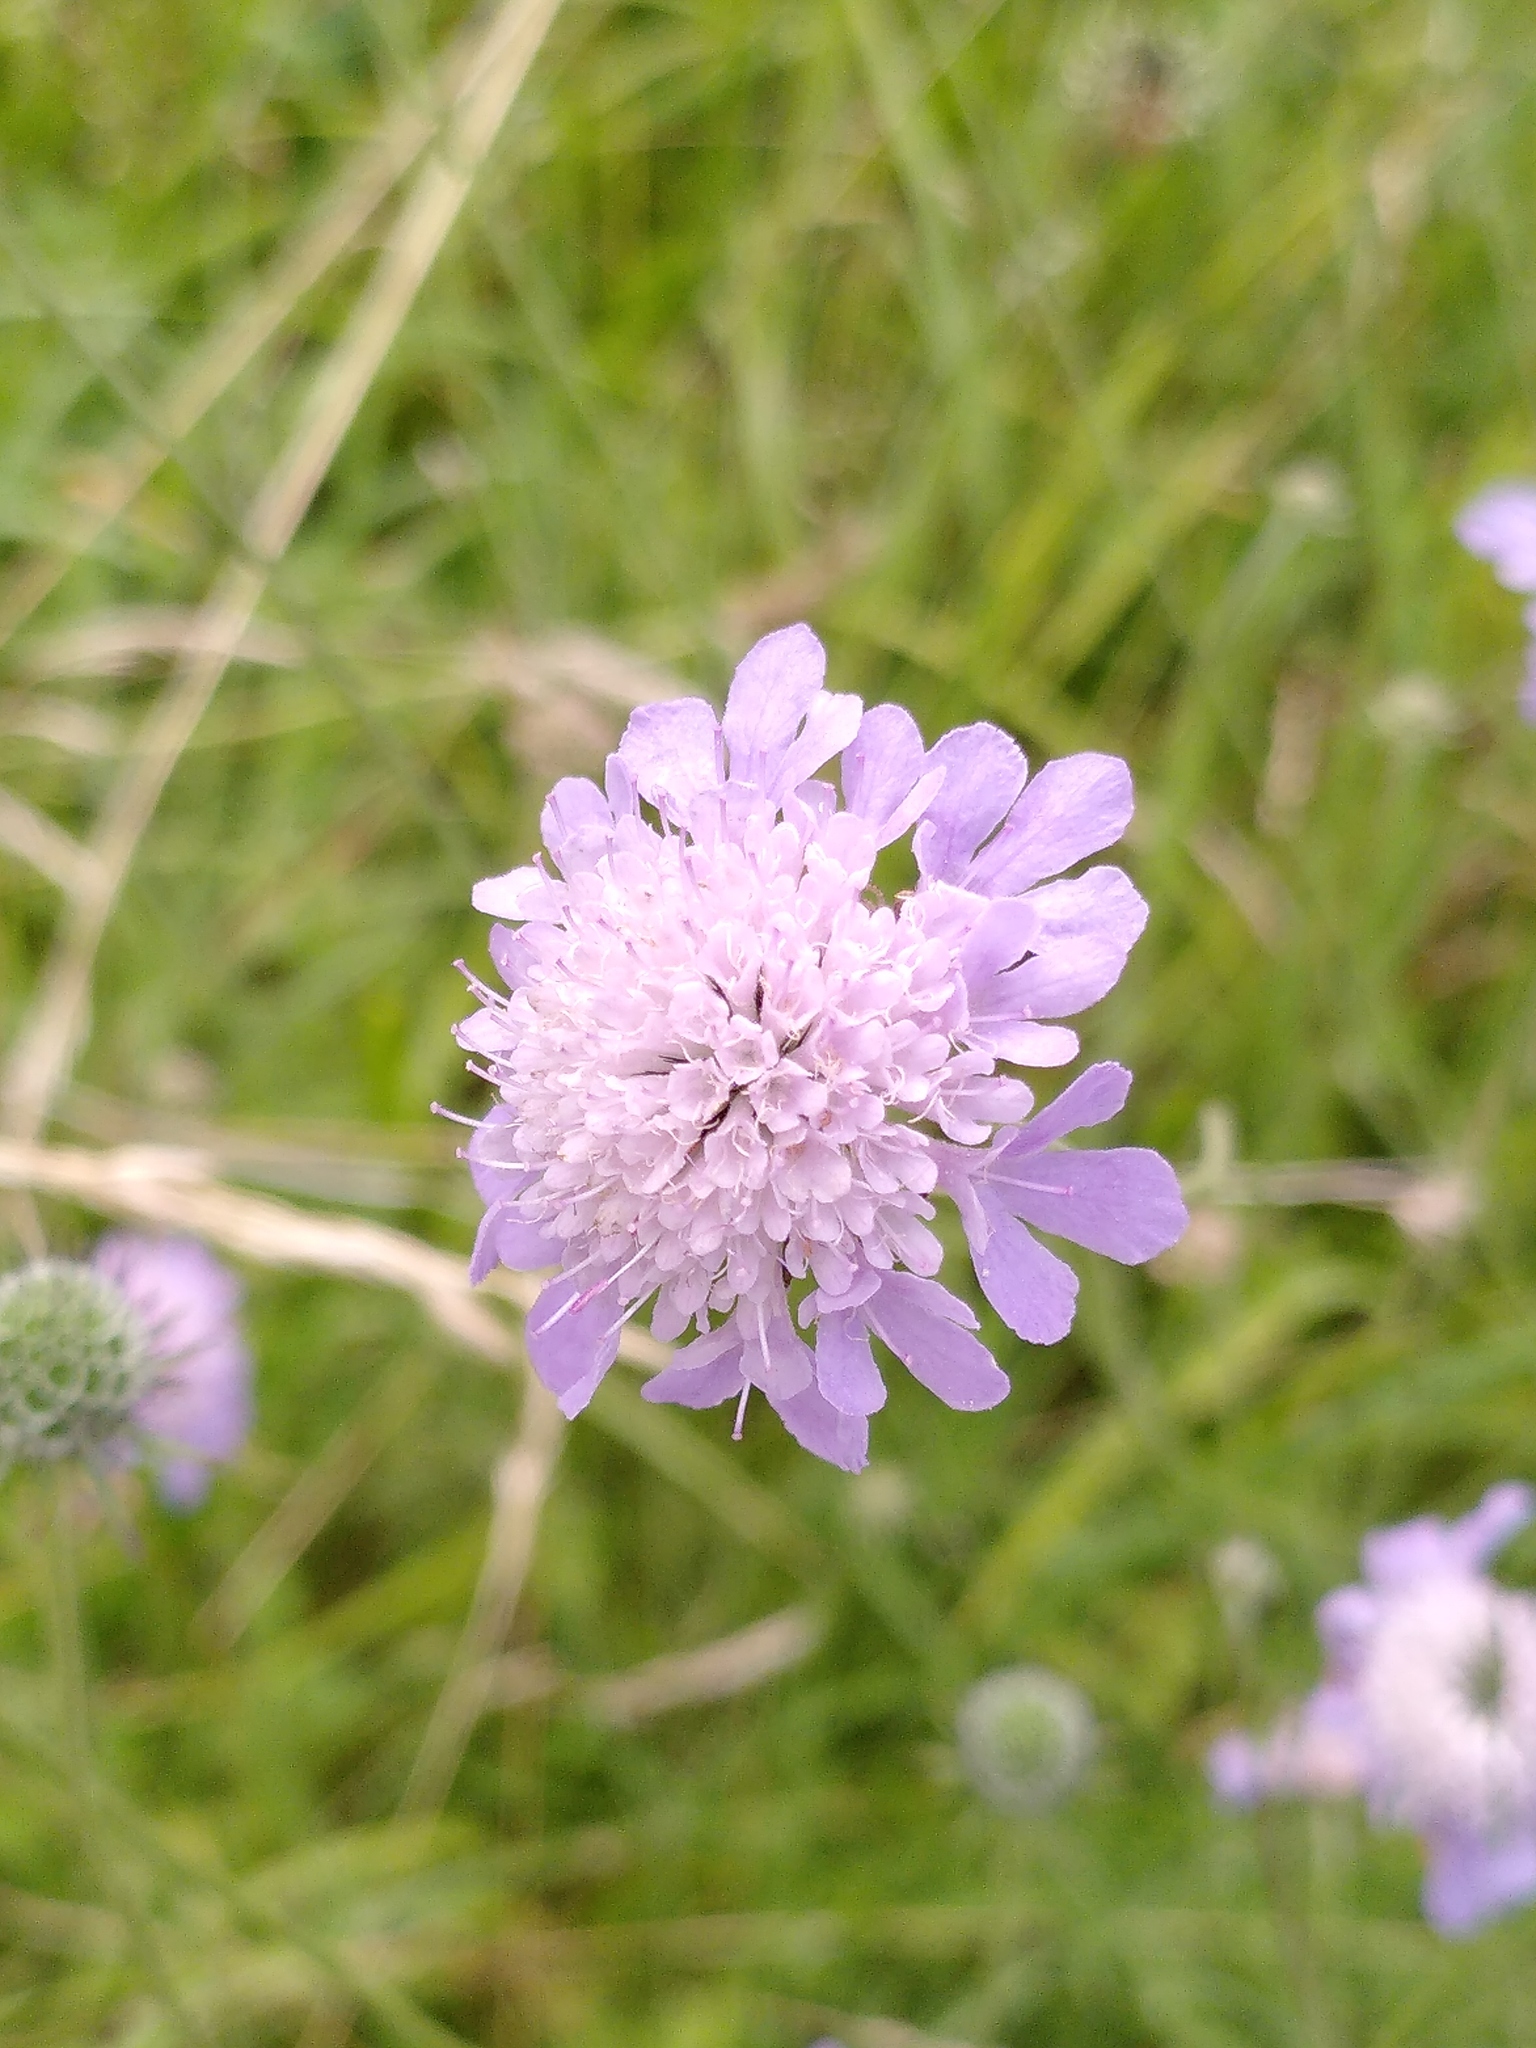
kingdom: Plantae
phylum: Tracheophyta
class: Magnoliopsida
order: Dipsacales
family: Caprifoliaceae
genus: Scabiosa
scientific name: Scabiosa columbaria
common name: Small scabious
